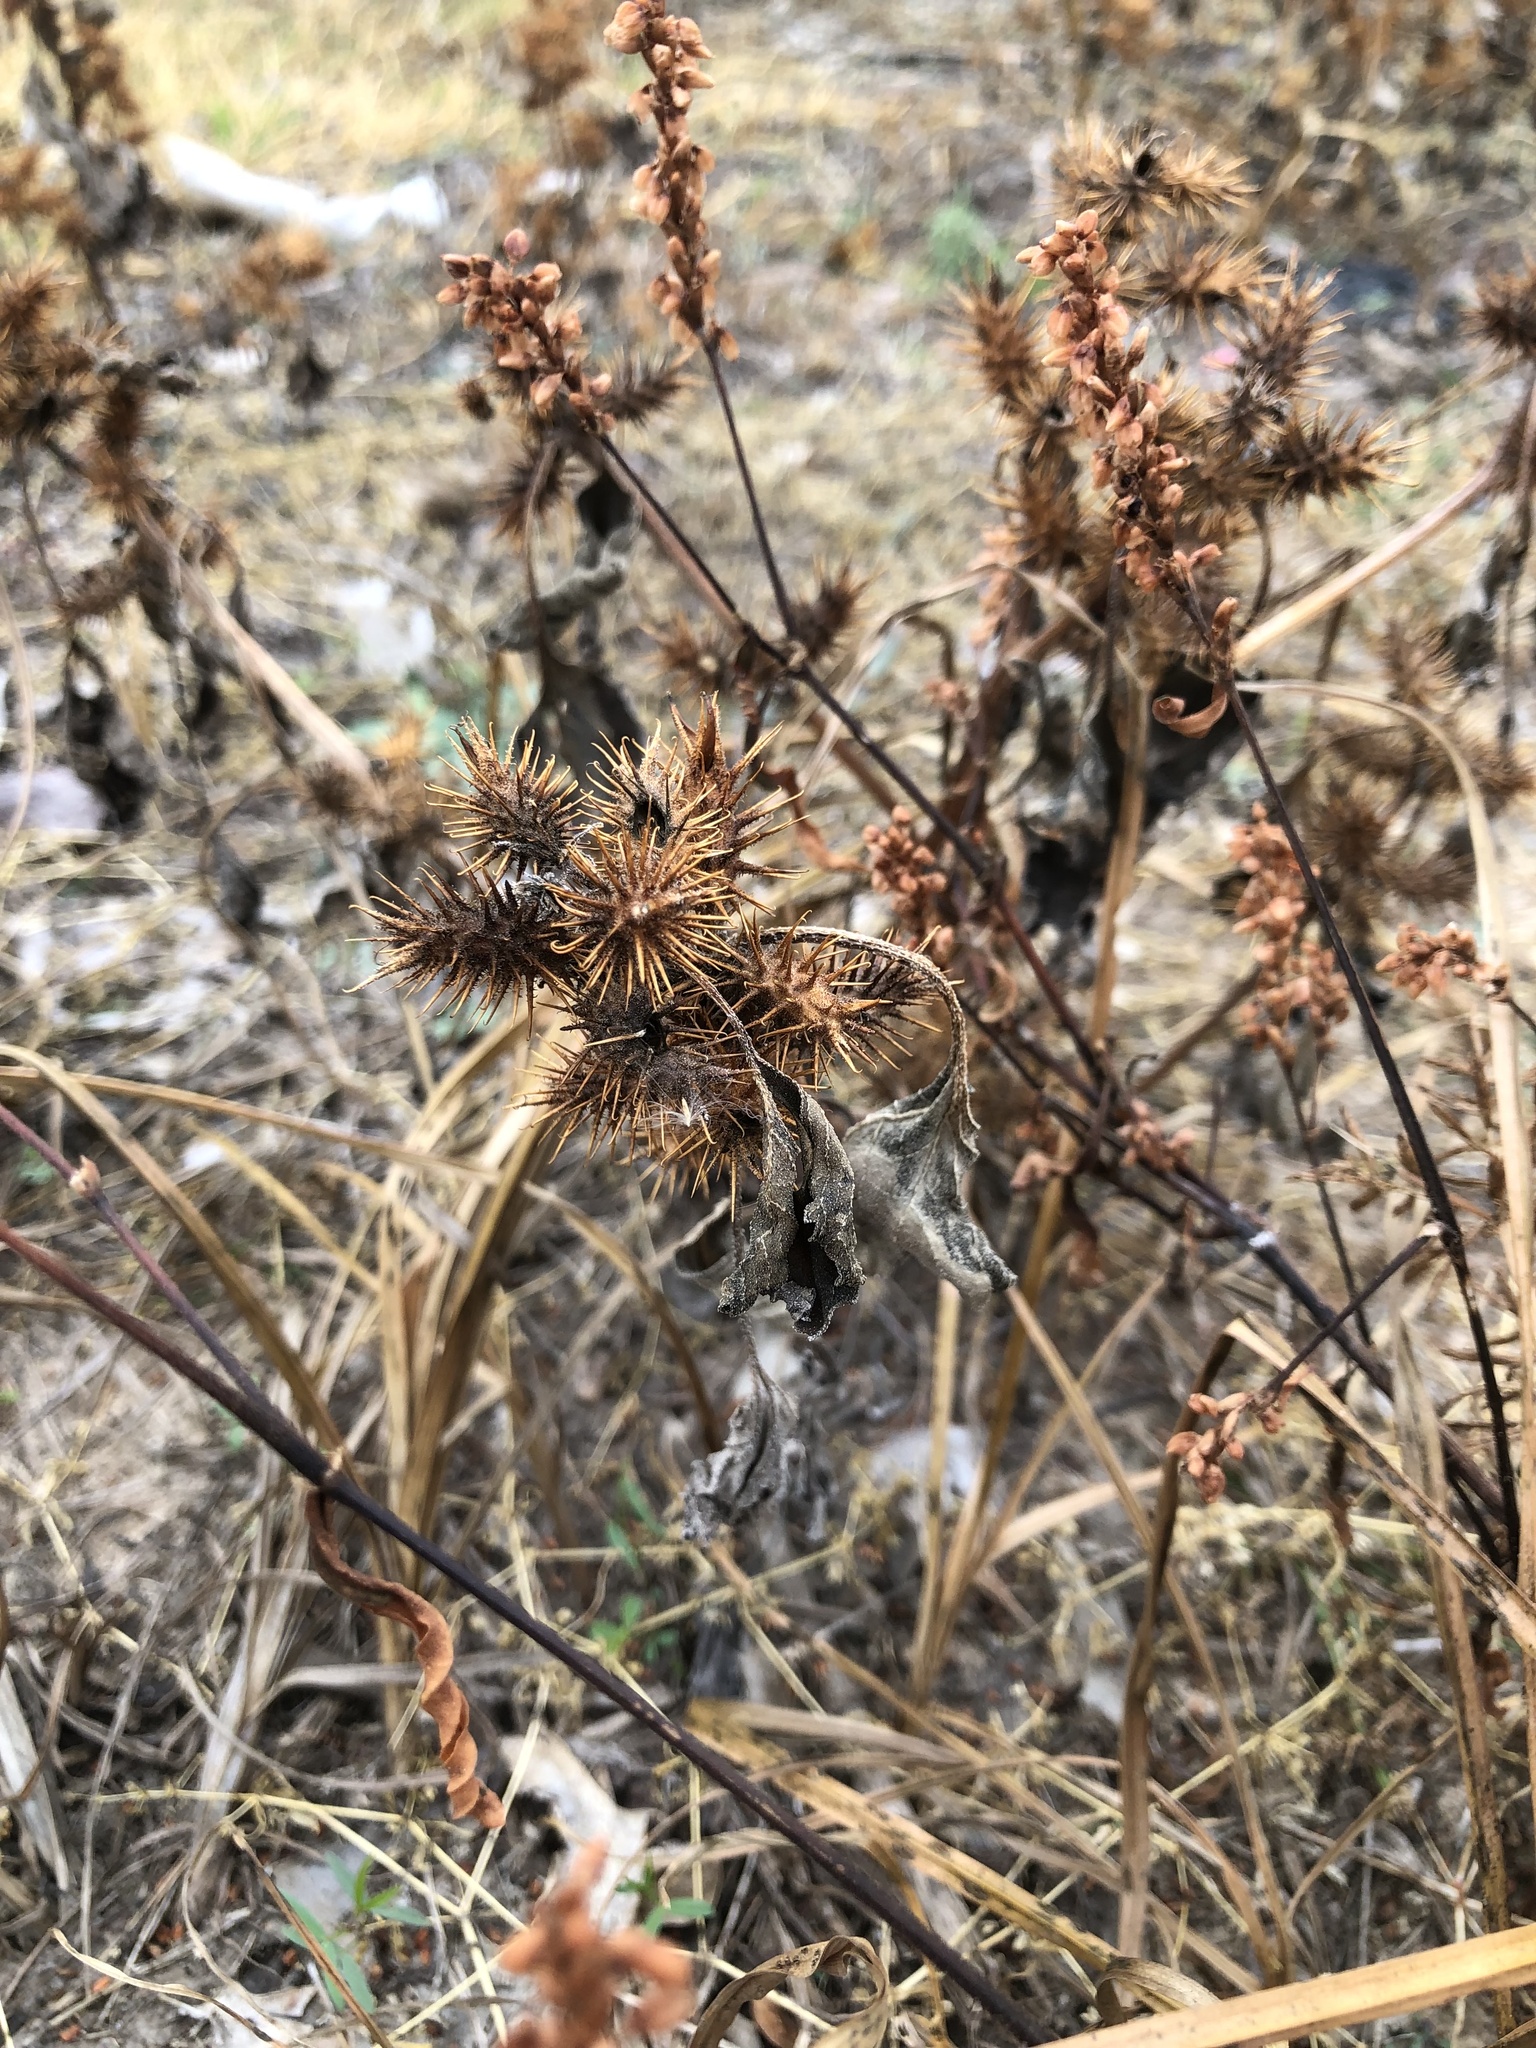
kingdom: Plantae
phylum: Tracheophyta
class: Magnoliopsida
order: Asterales
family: Asteraceae
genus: Xanthium
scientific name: Xanthium strumarium
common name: Rough cocklebur
